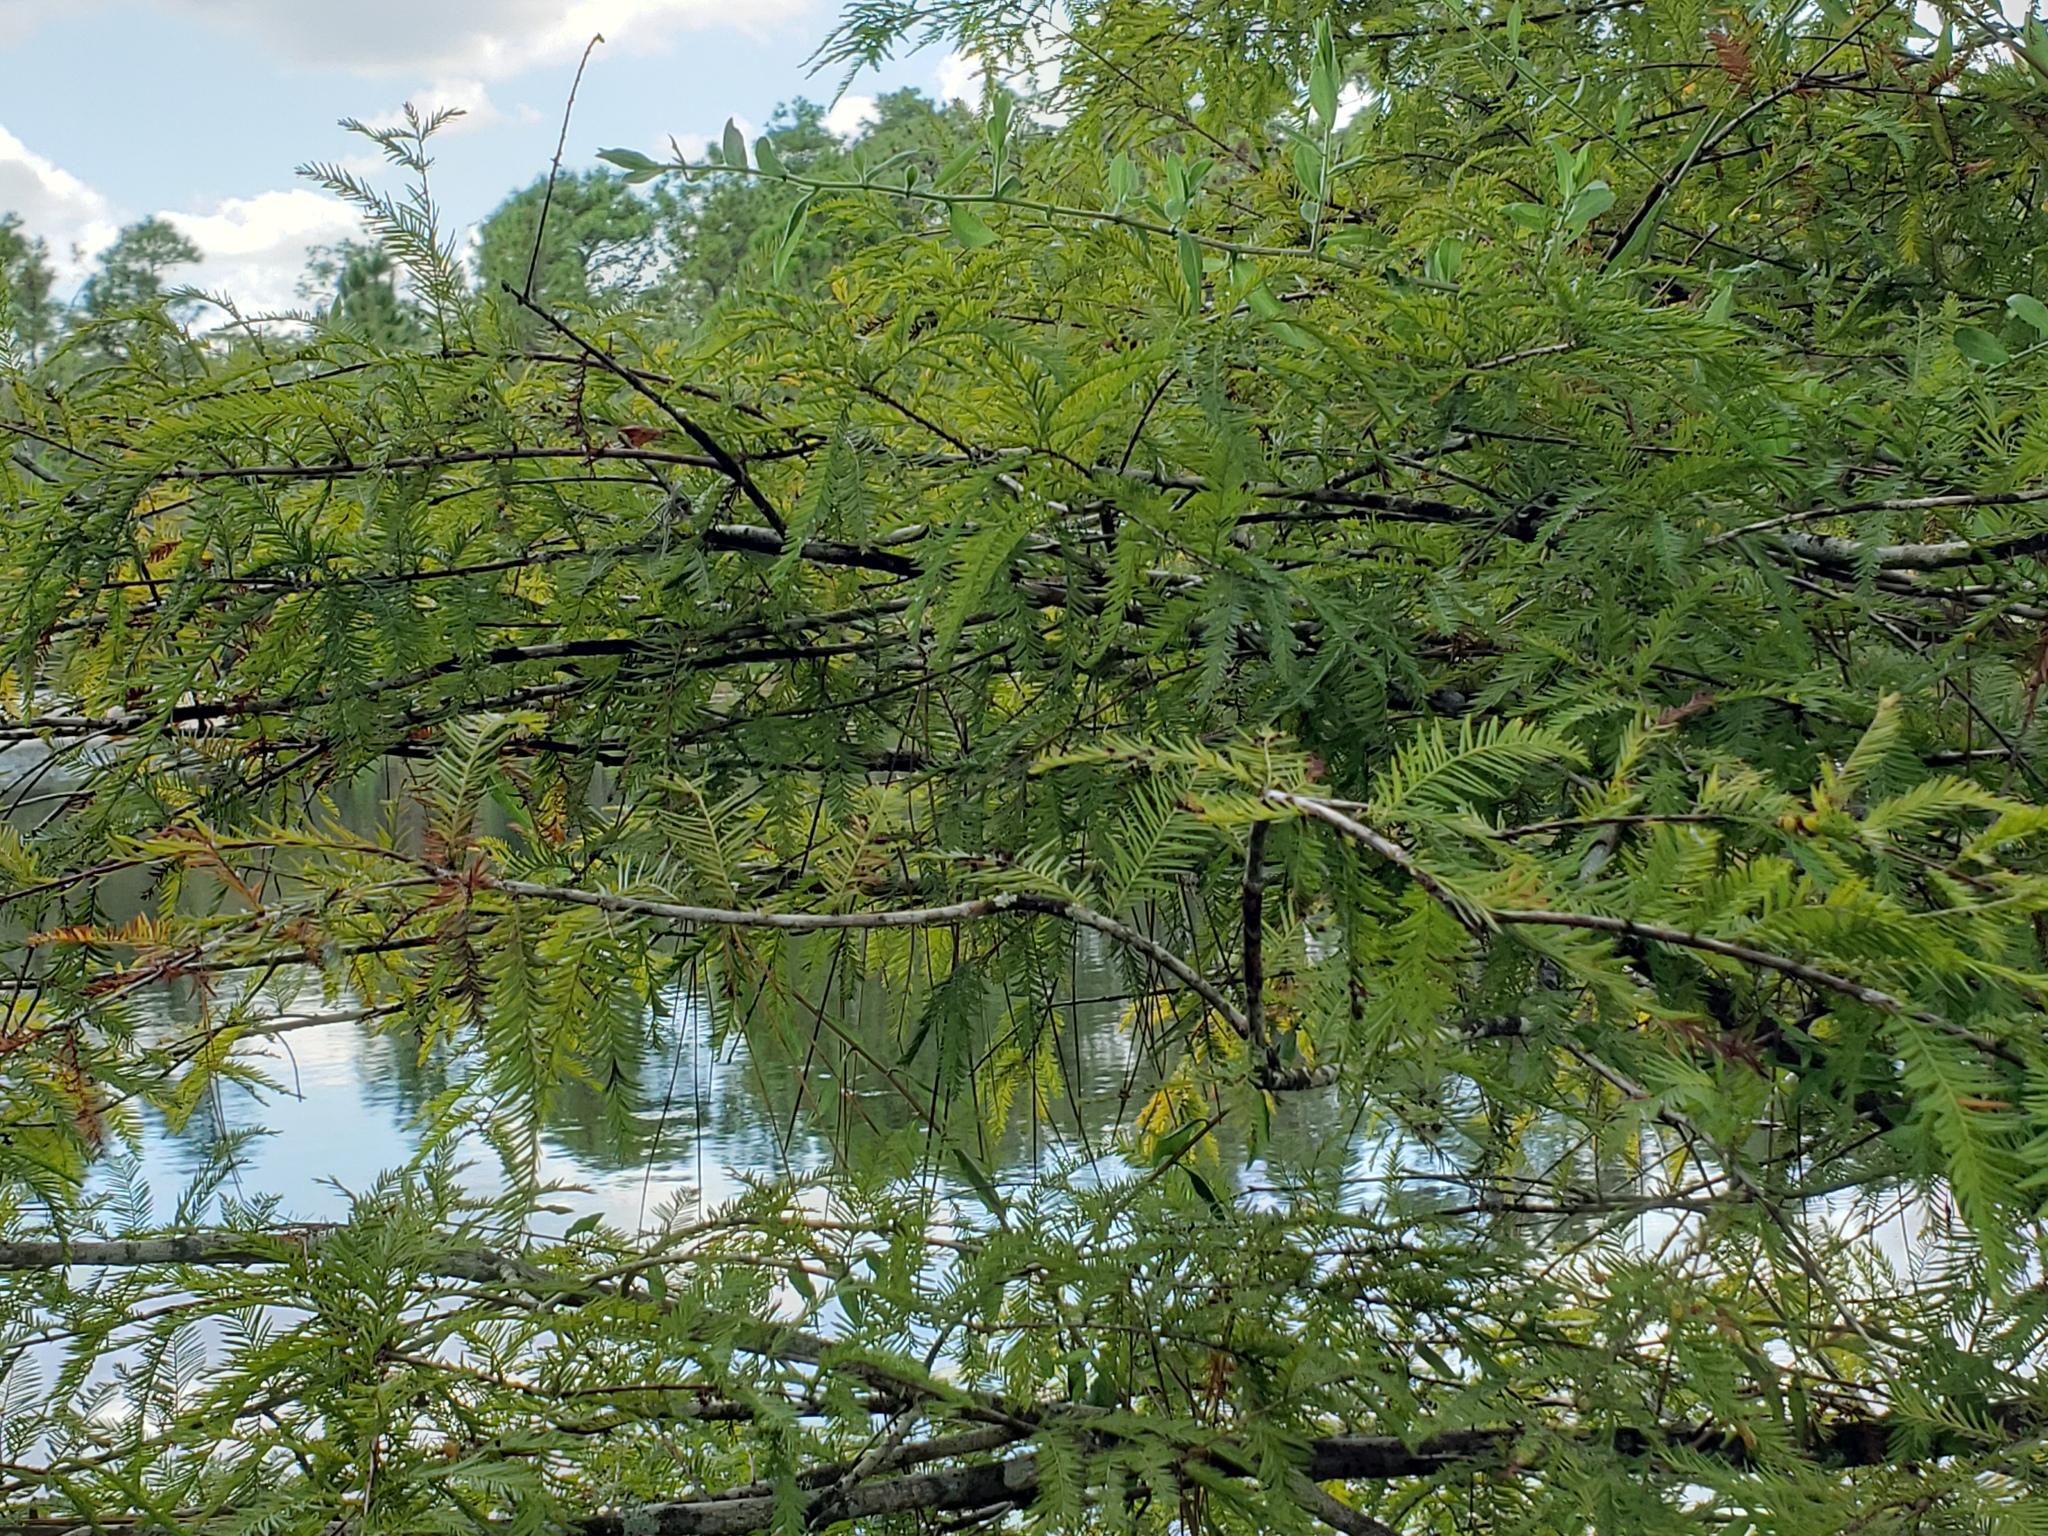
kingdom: Plantae
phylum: Tracheophyta
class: Pinopsida
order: Pinales
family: Cupressaceae
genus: Taxodium
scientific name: Taxodium distichum
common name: Bald cypress
